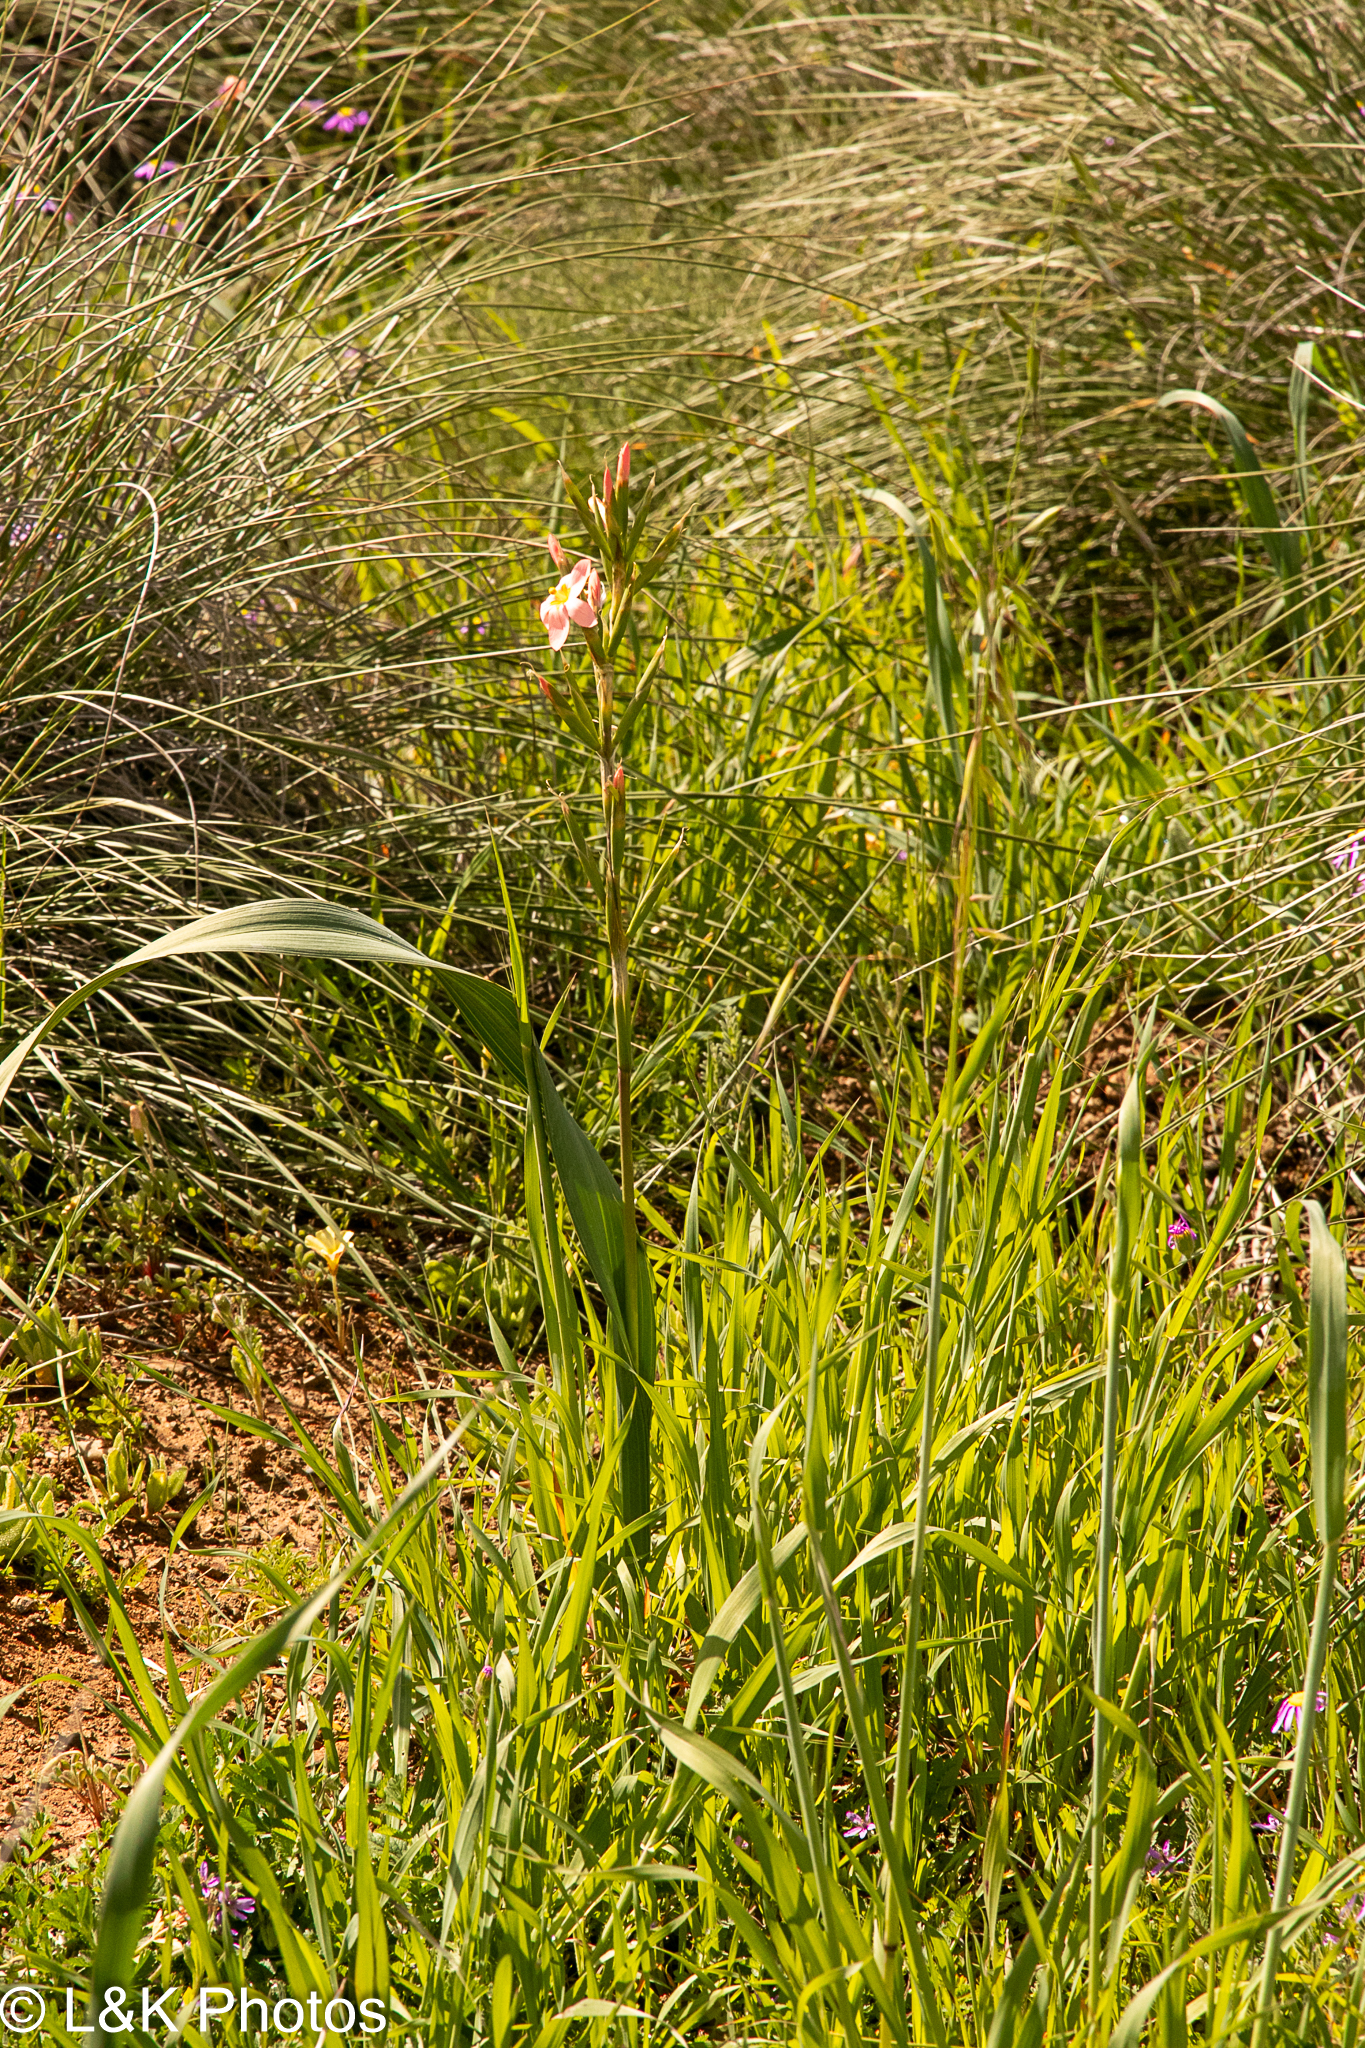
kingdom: Plantae
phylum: Tracheophyta
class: Liliopsida
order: Asparagales
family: Iridaceae
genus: Moraea
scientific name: Moraea bifida
